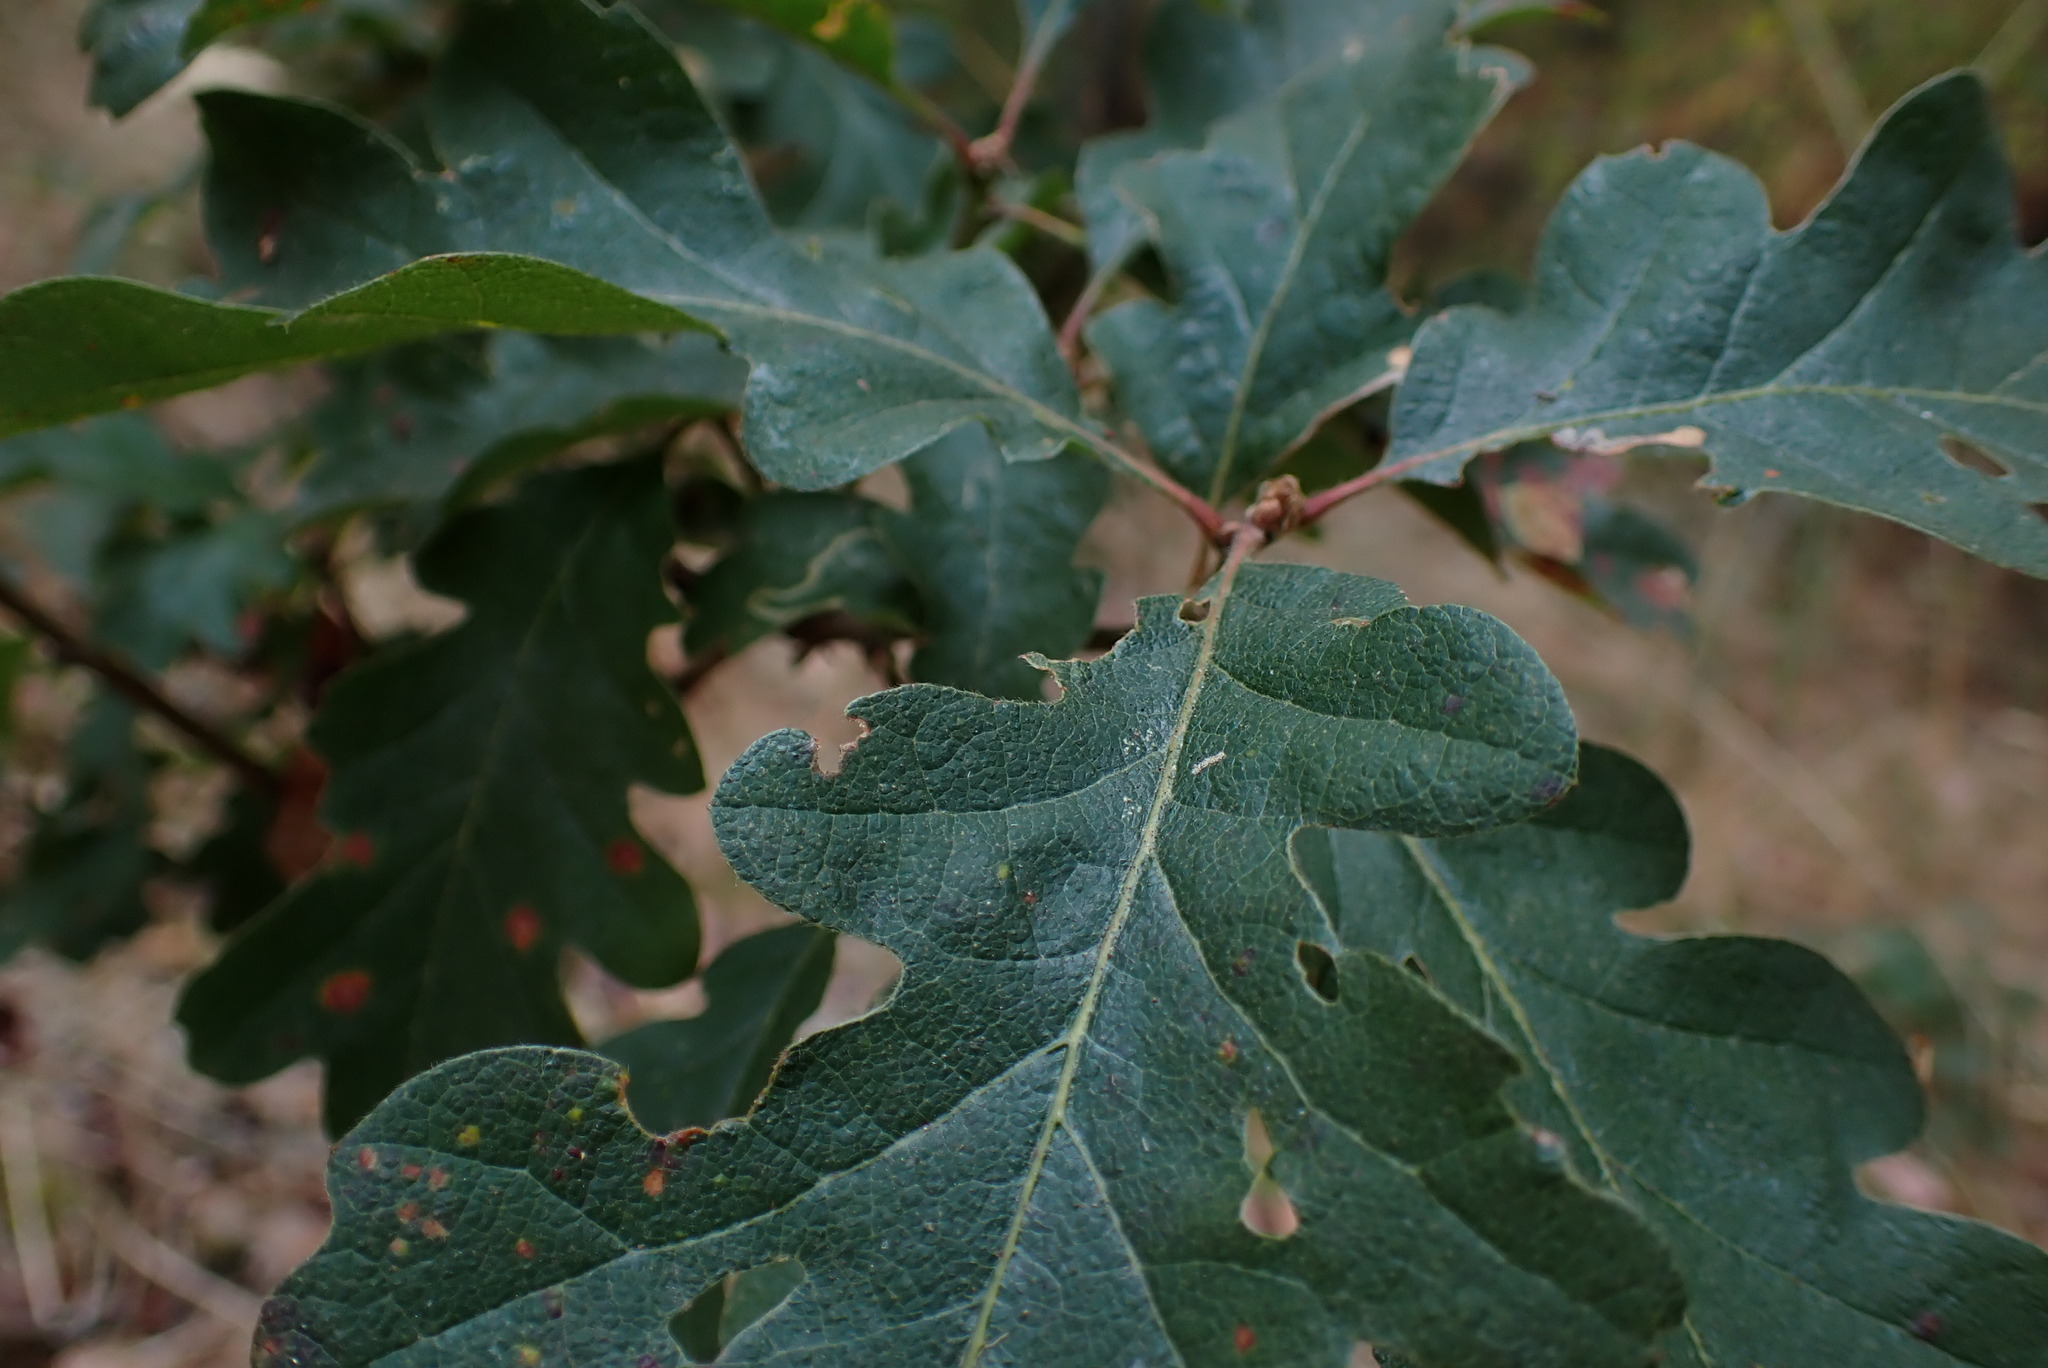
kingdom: Plantae
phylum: Tracheophyta
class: Magnoliopsida
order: Fagales
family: Fagaceae
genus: Quercus
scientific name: Quercus garryana
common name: Garry oak
